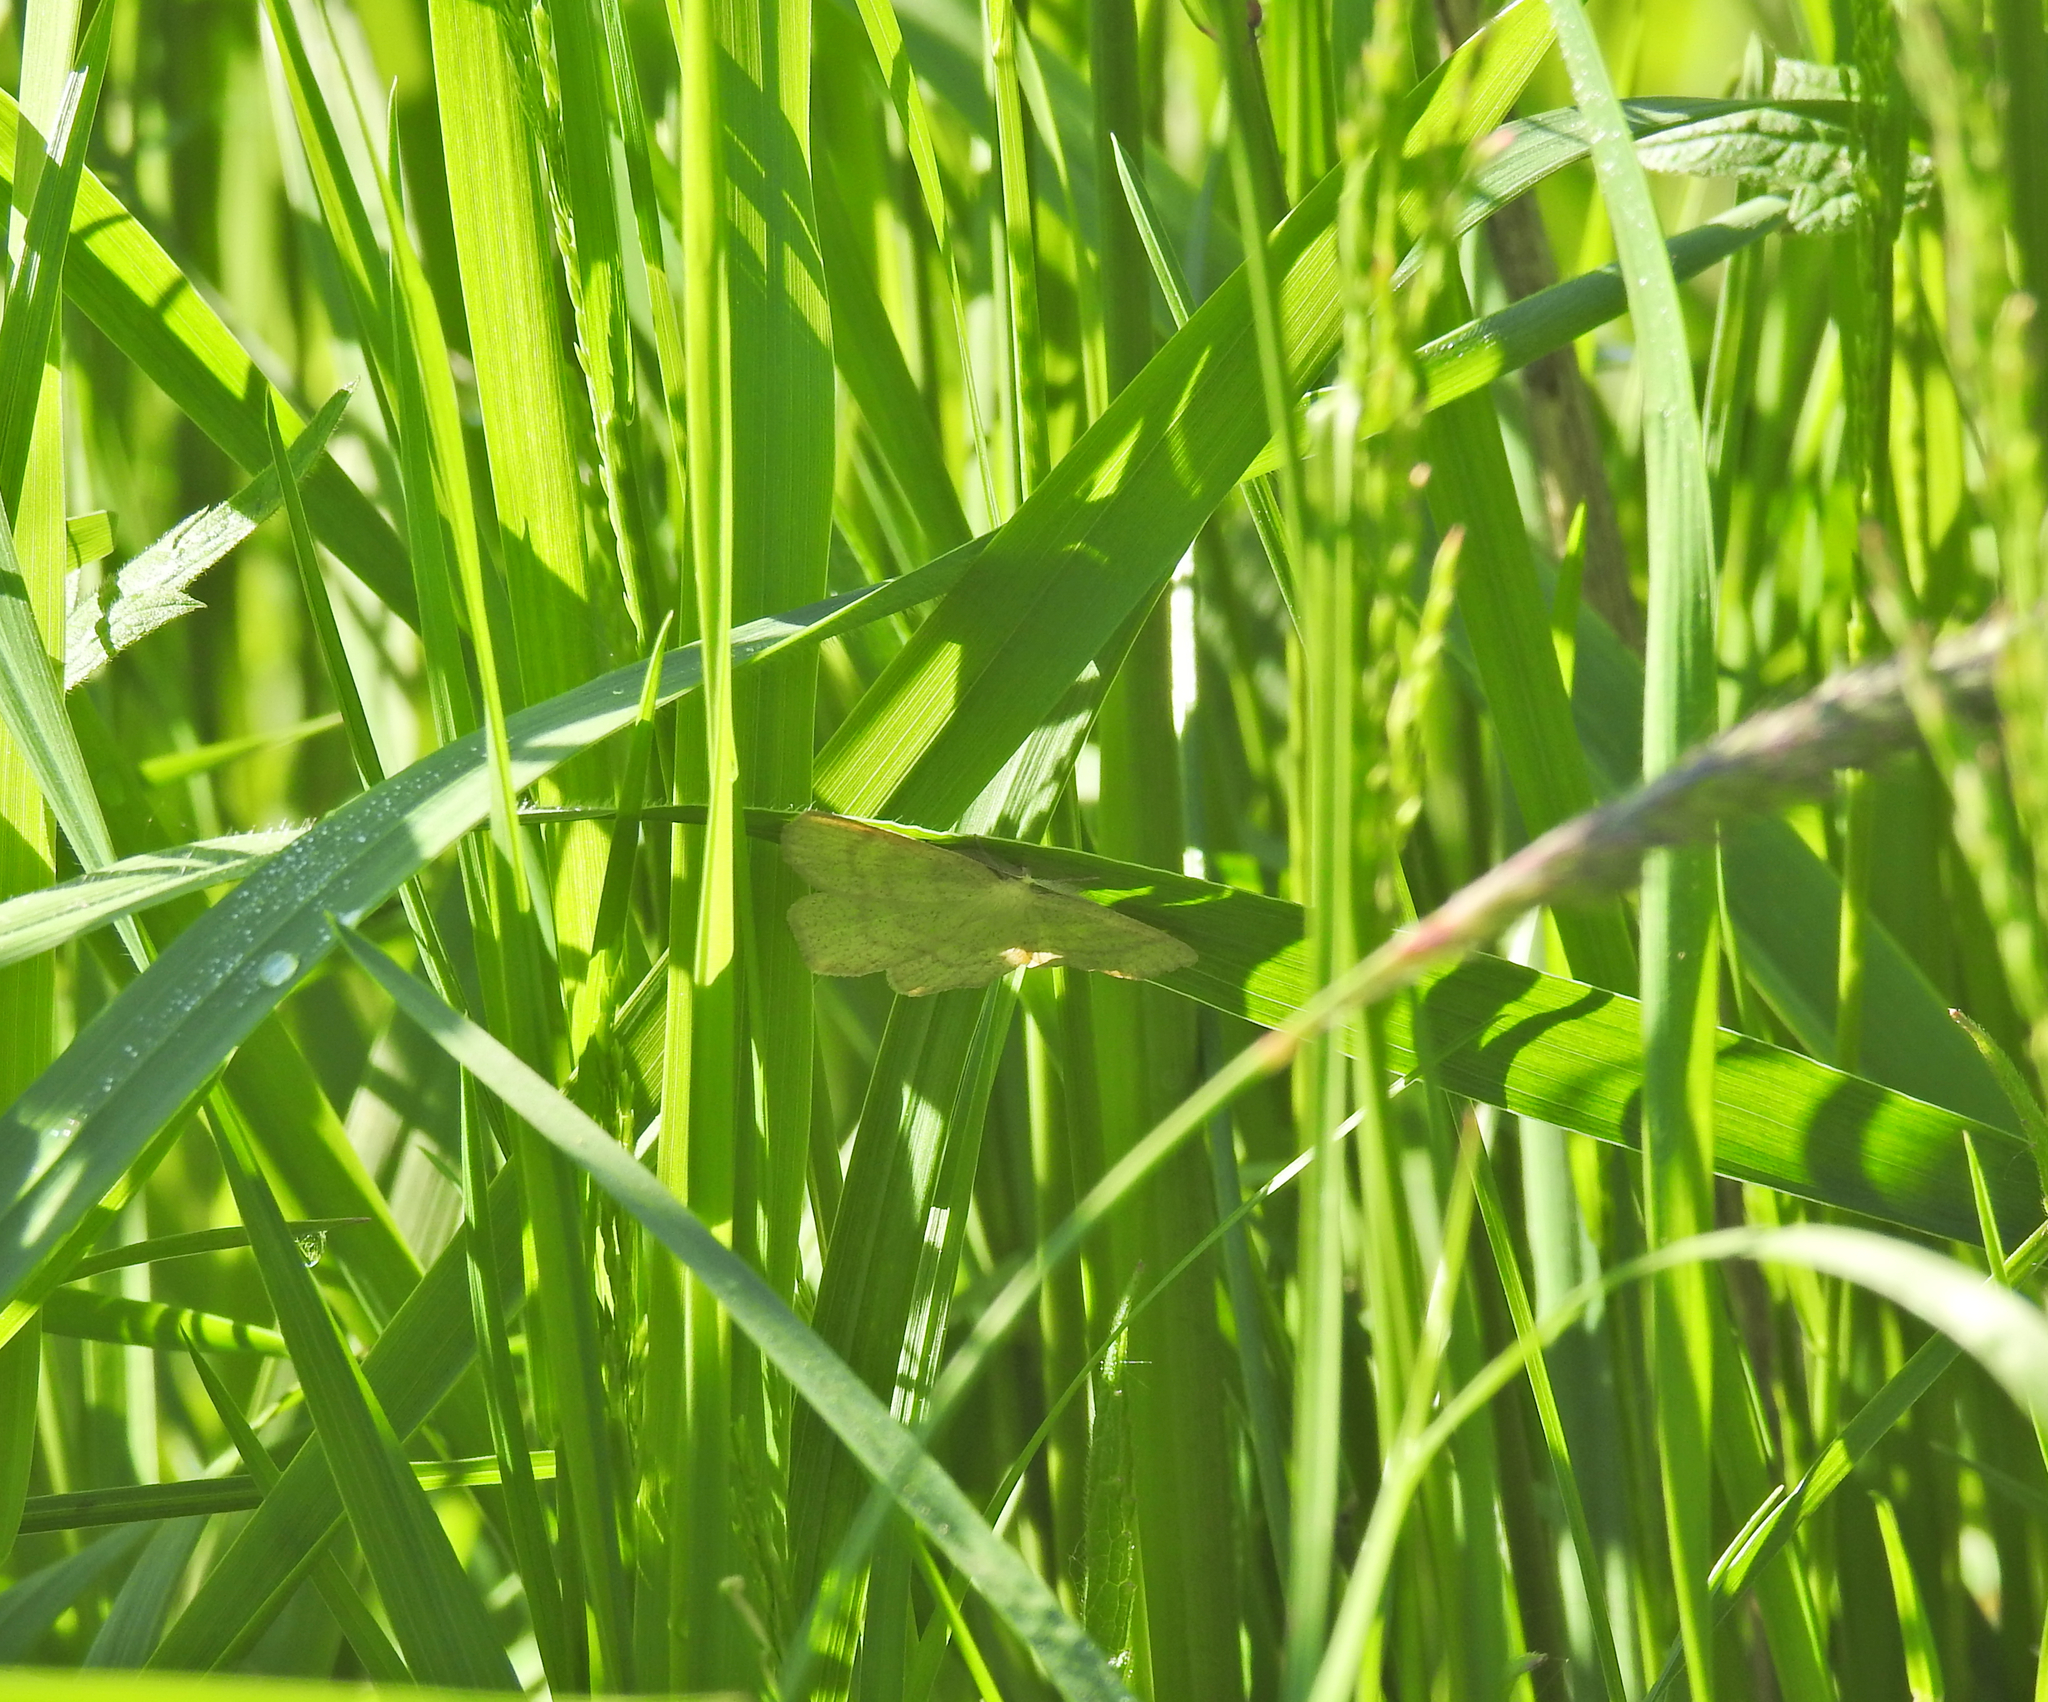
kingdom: Animalia
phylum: Arthropoda
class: Insecta
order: Lepidoptera
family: Geometridae
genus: Cabera
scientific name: Cabera exanthemata
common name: Common wave
